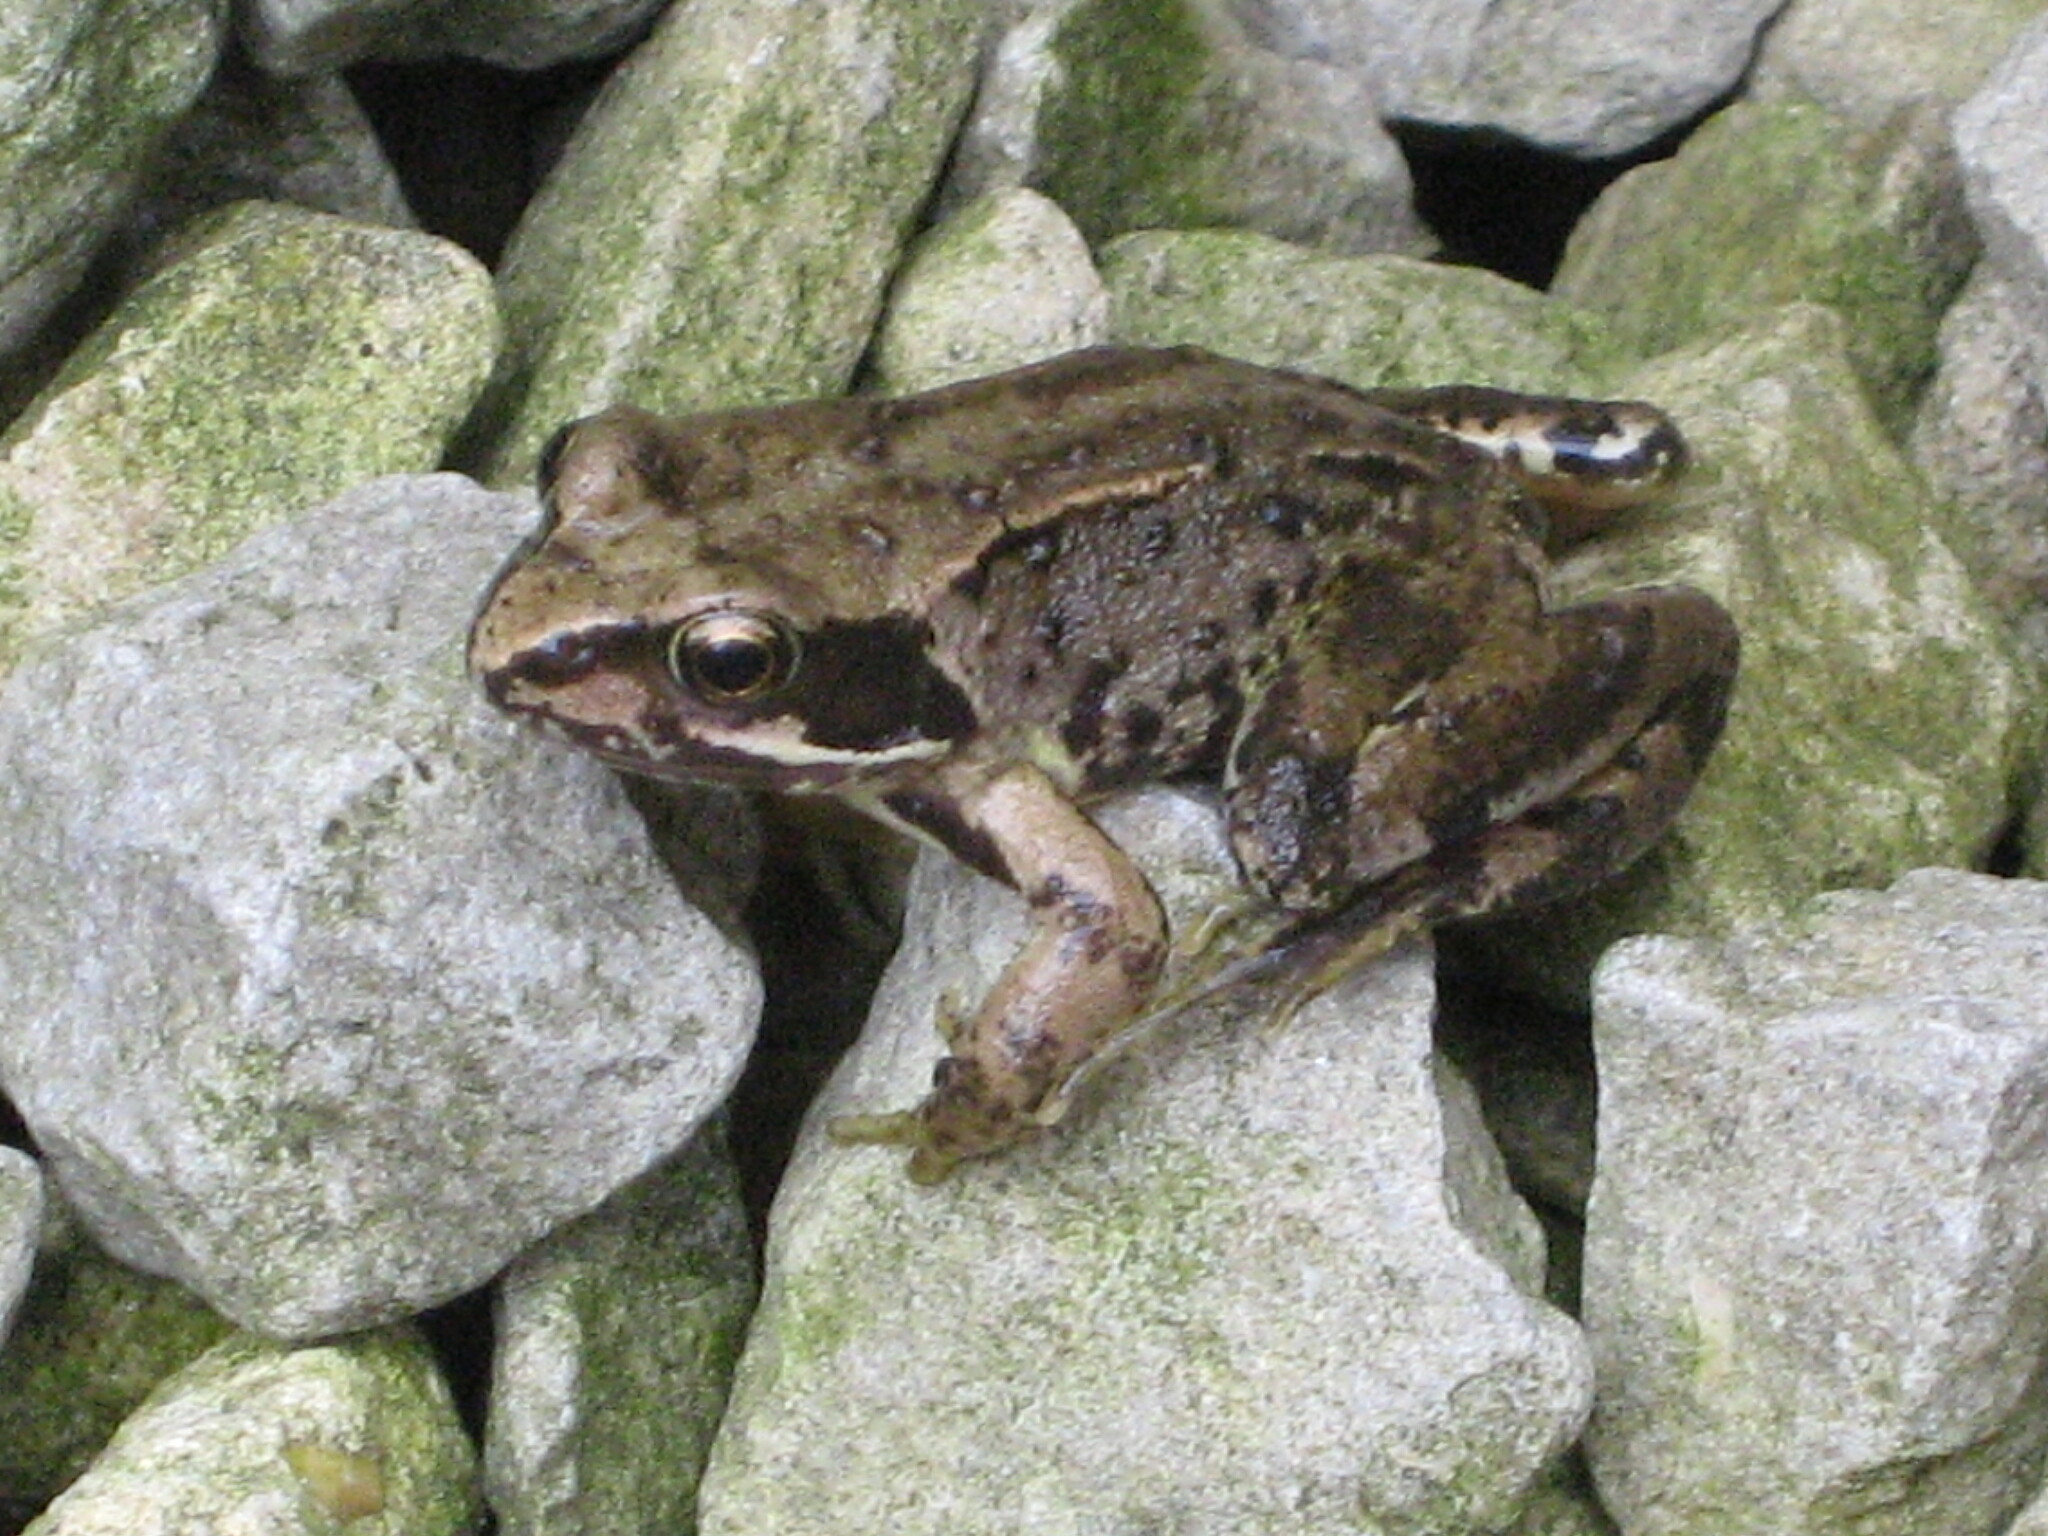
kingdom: Animalia
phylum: Chordata
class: Amphibia
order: Anura
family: Ranidae
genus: Rana
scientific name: Rana temporaria
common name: Common frog
